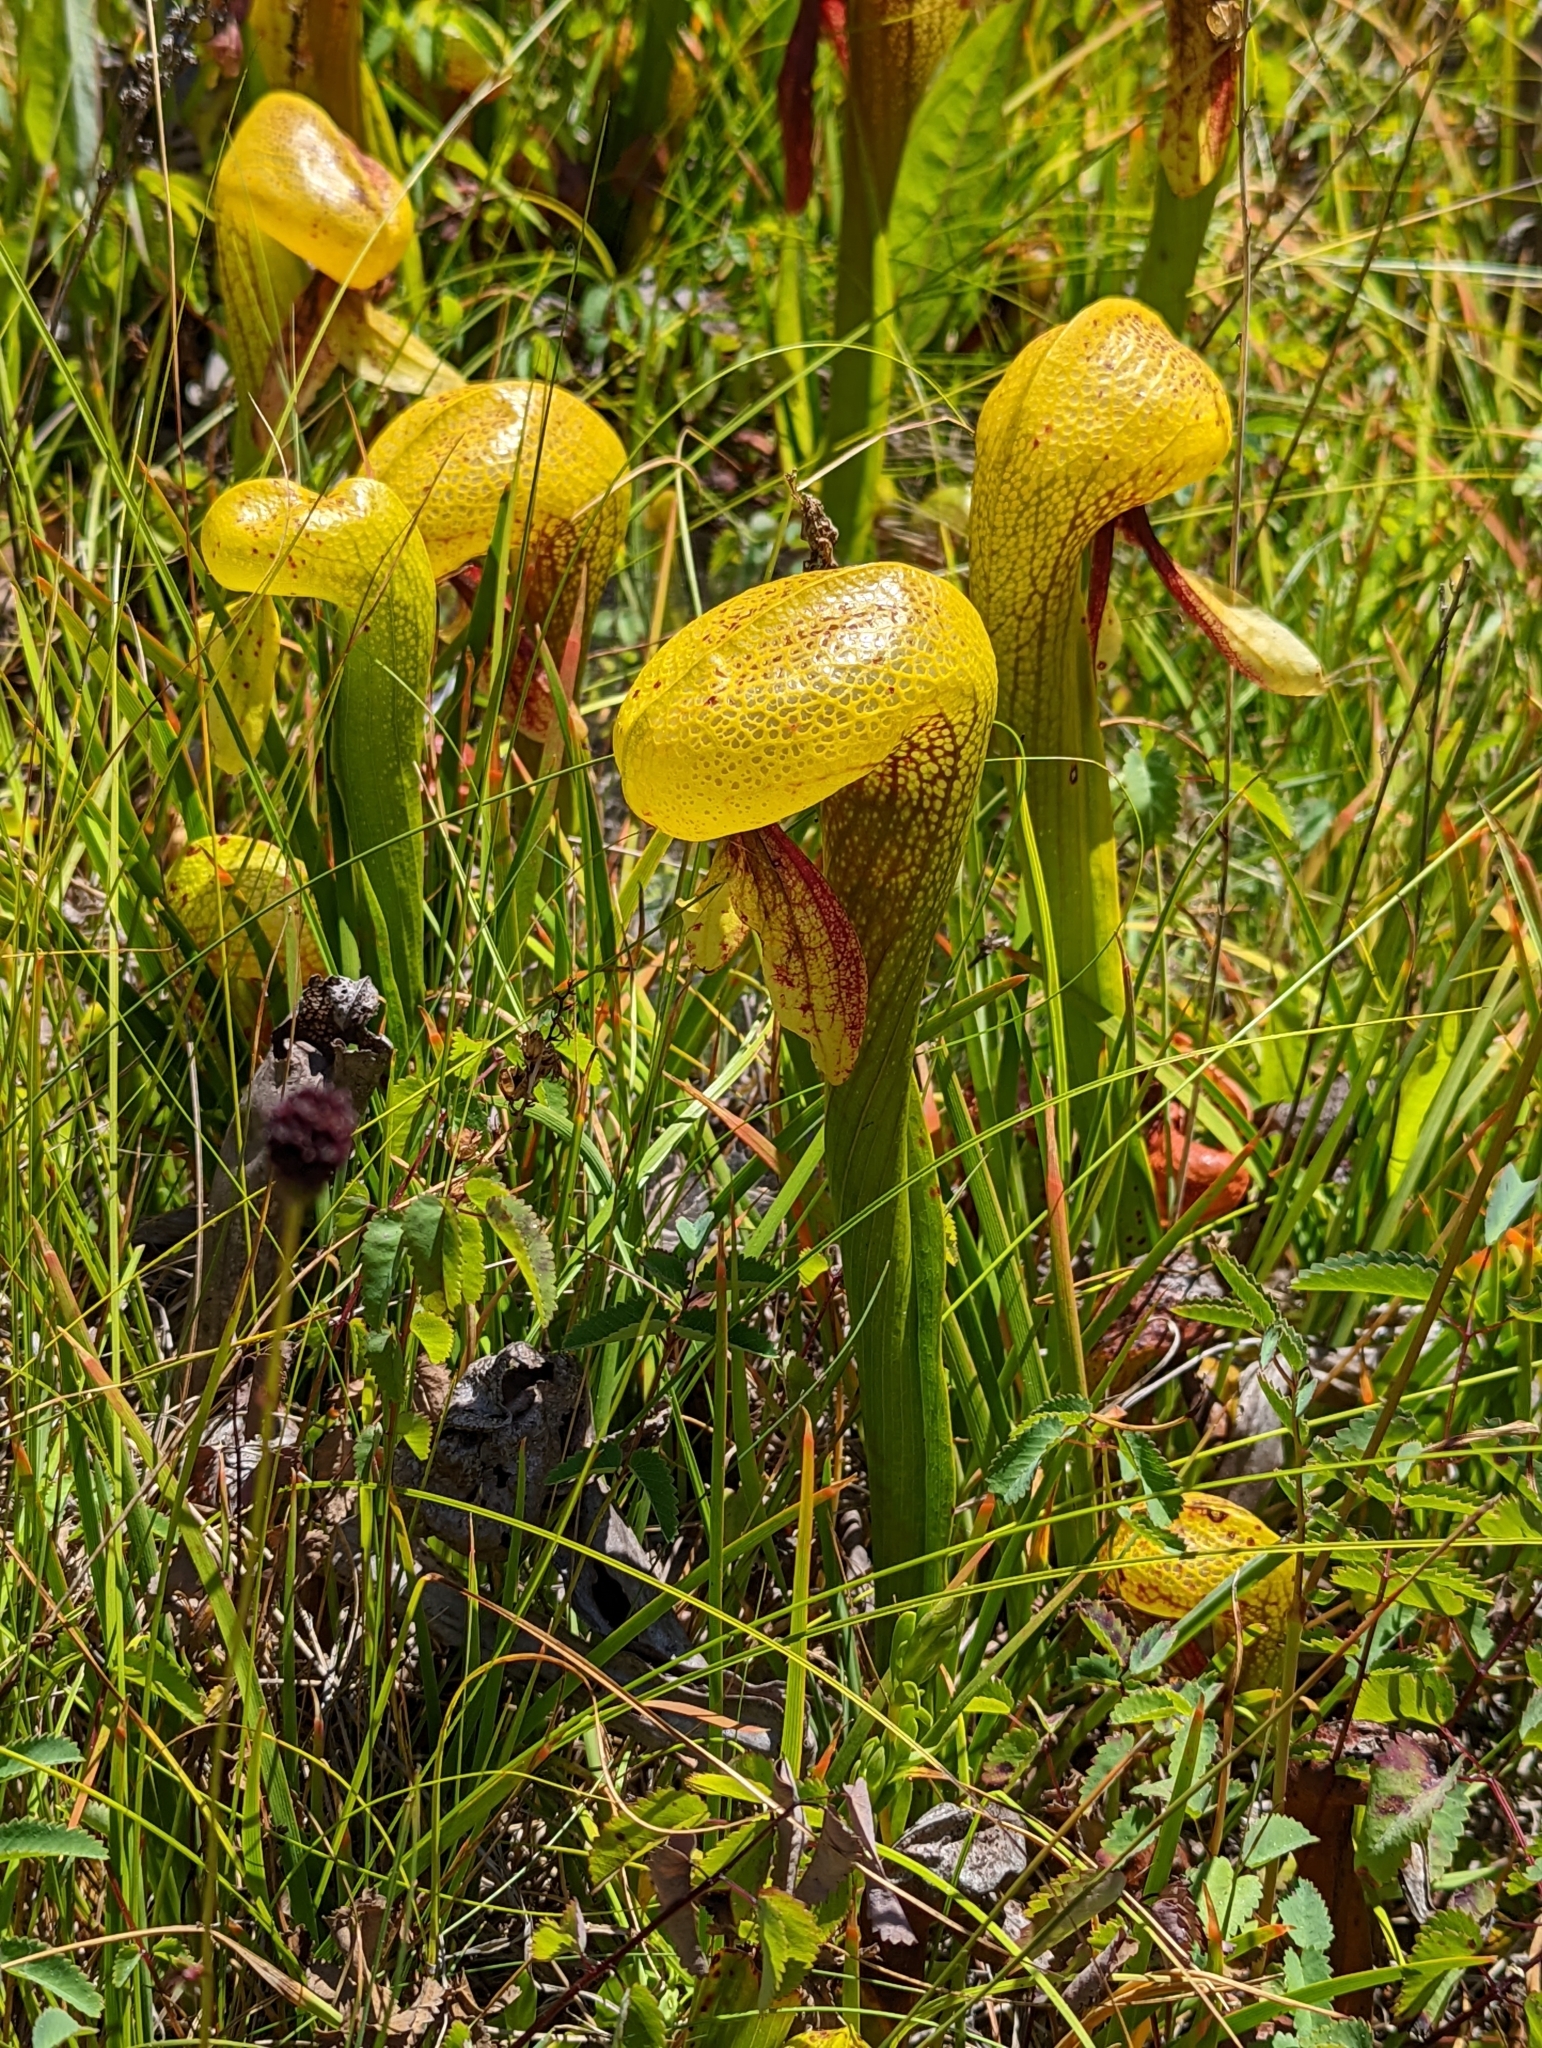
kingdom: Plantae
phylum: Tracheophyta
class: Magnoliopsida
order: Ericales
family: Sarraceniaceae
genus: Darlingtonia
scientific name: Darlingtonia californica
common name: California pitcher plant
